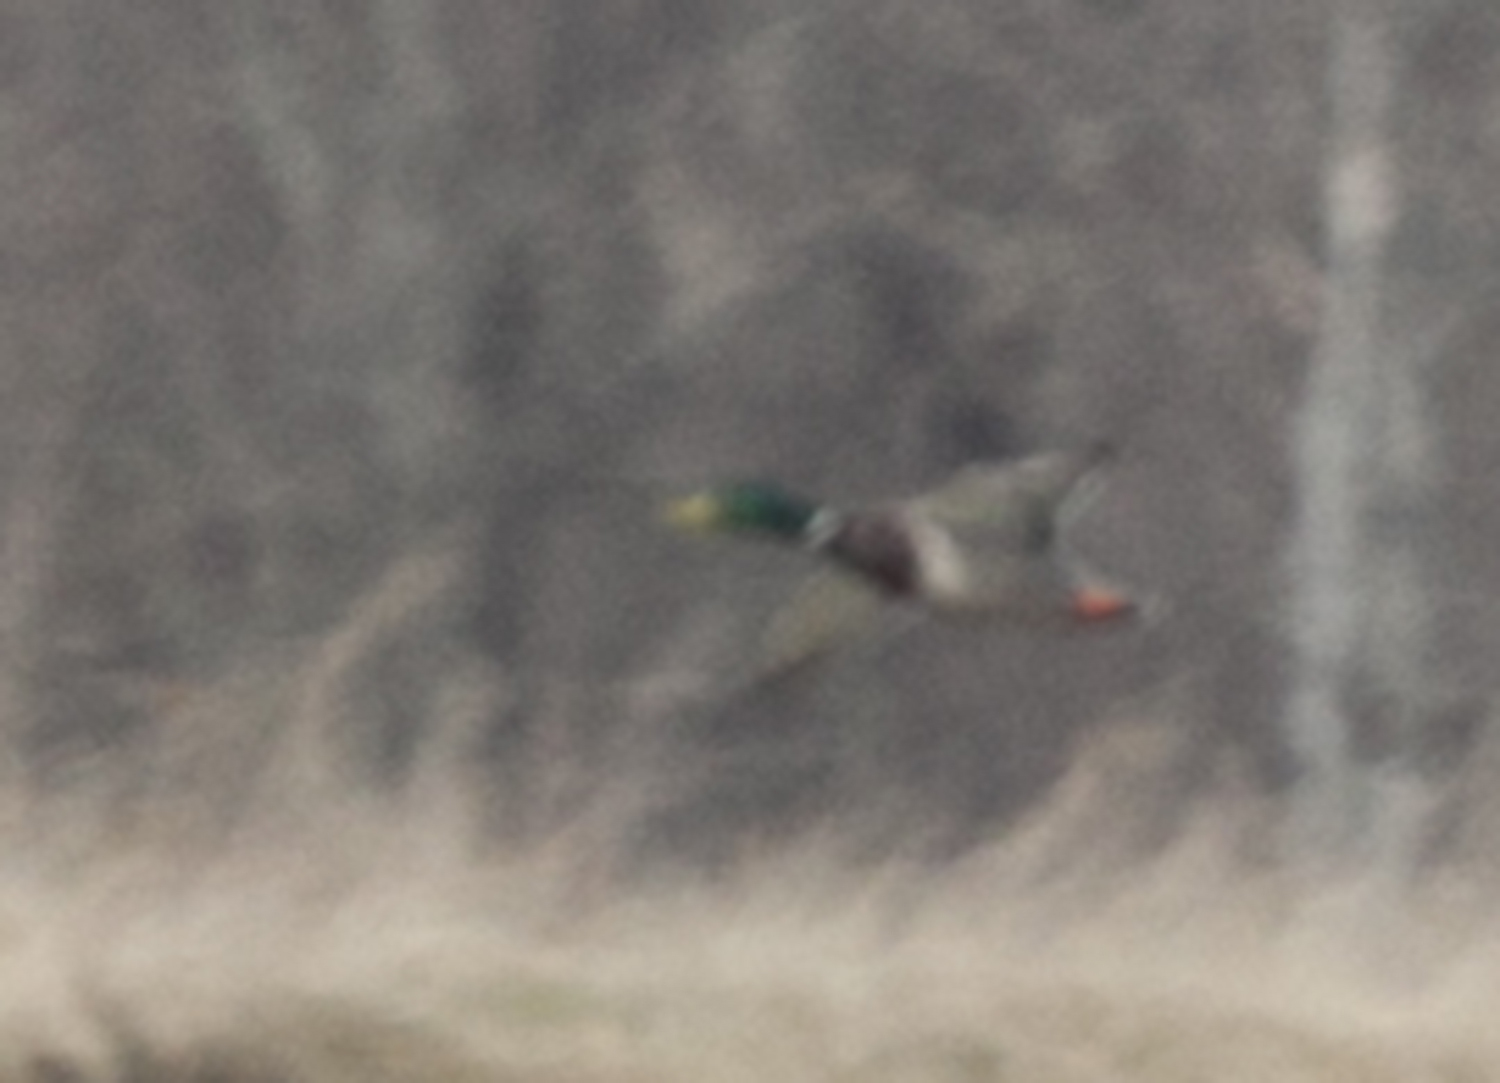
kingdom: Animalia
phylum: Chordata
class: Aves
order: Anseriformes
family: Anatidae
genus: Anas
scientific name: Anas platyrhynchos
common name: Mallard
